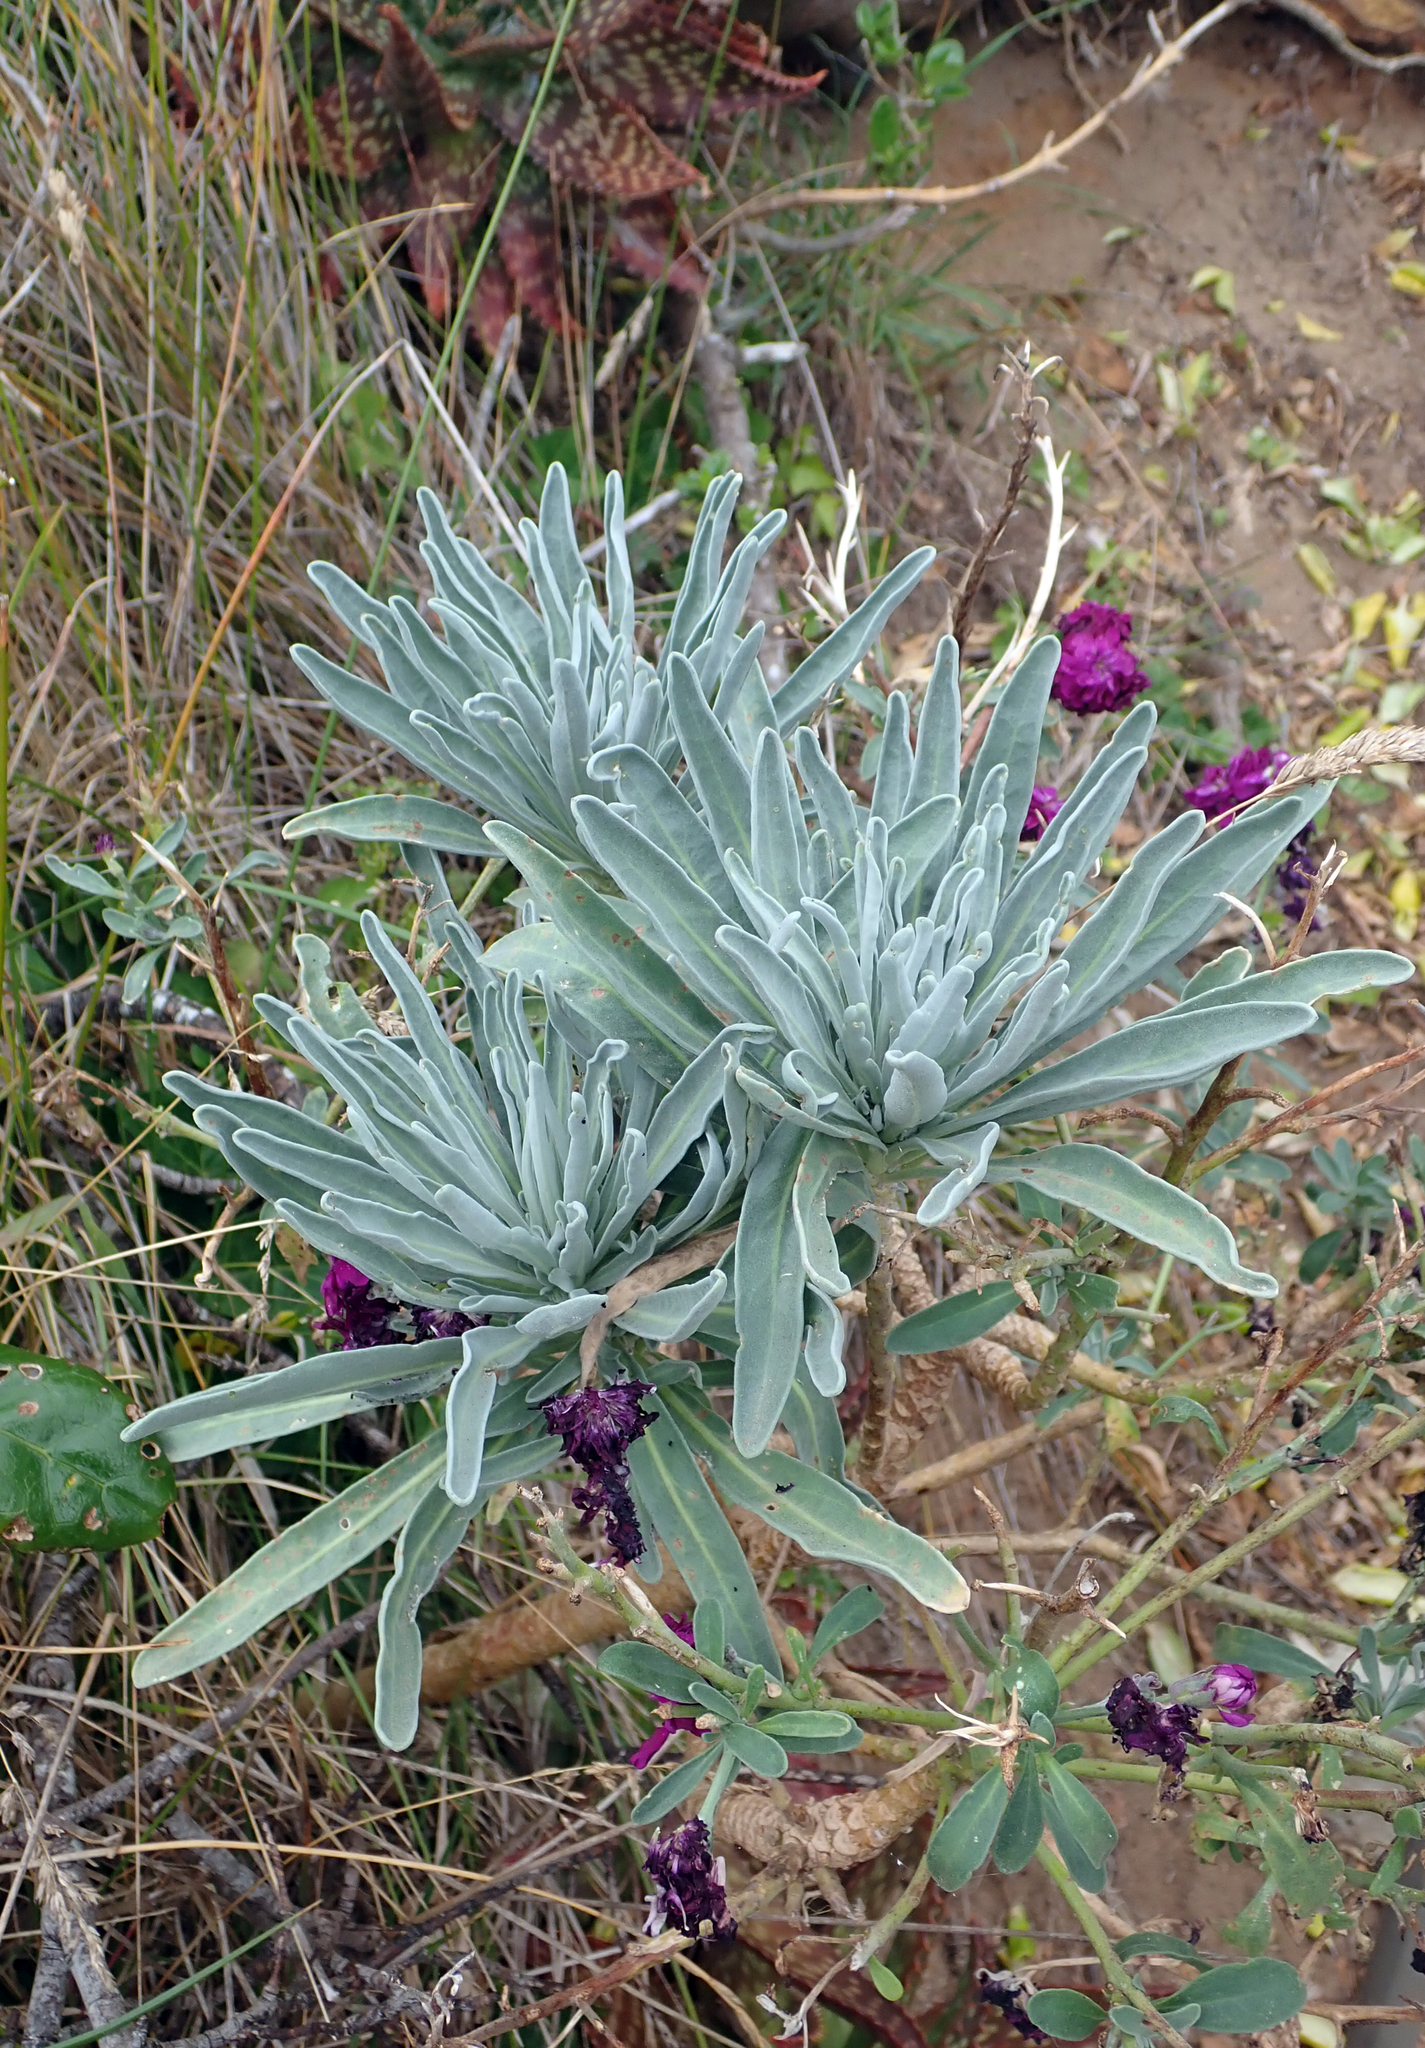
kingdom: Plantae
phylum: Tracheophyta
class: Magnoliopsida
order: Brassicales
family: Brassicaceae
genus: Matthiola
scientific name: Matthiola incana
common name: Hoary stock
